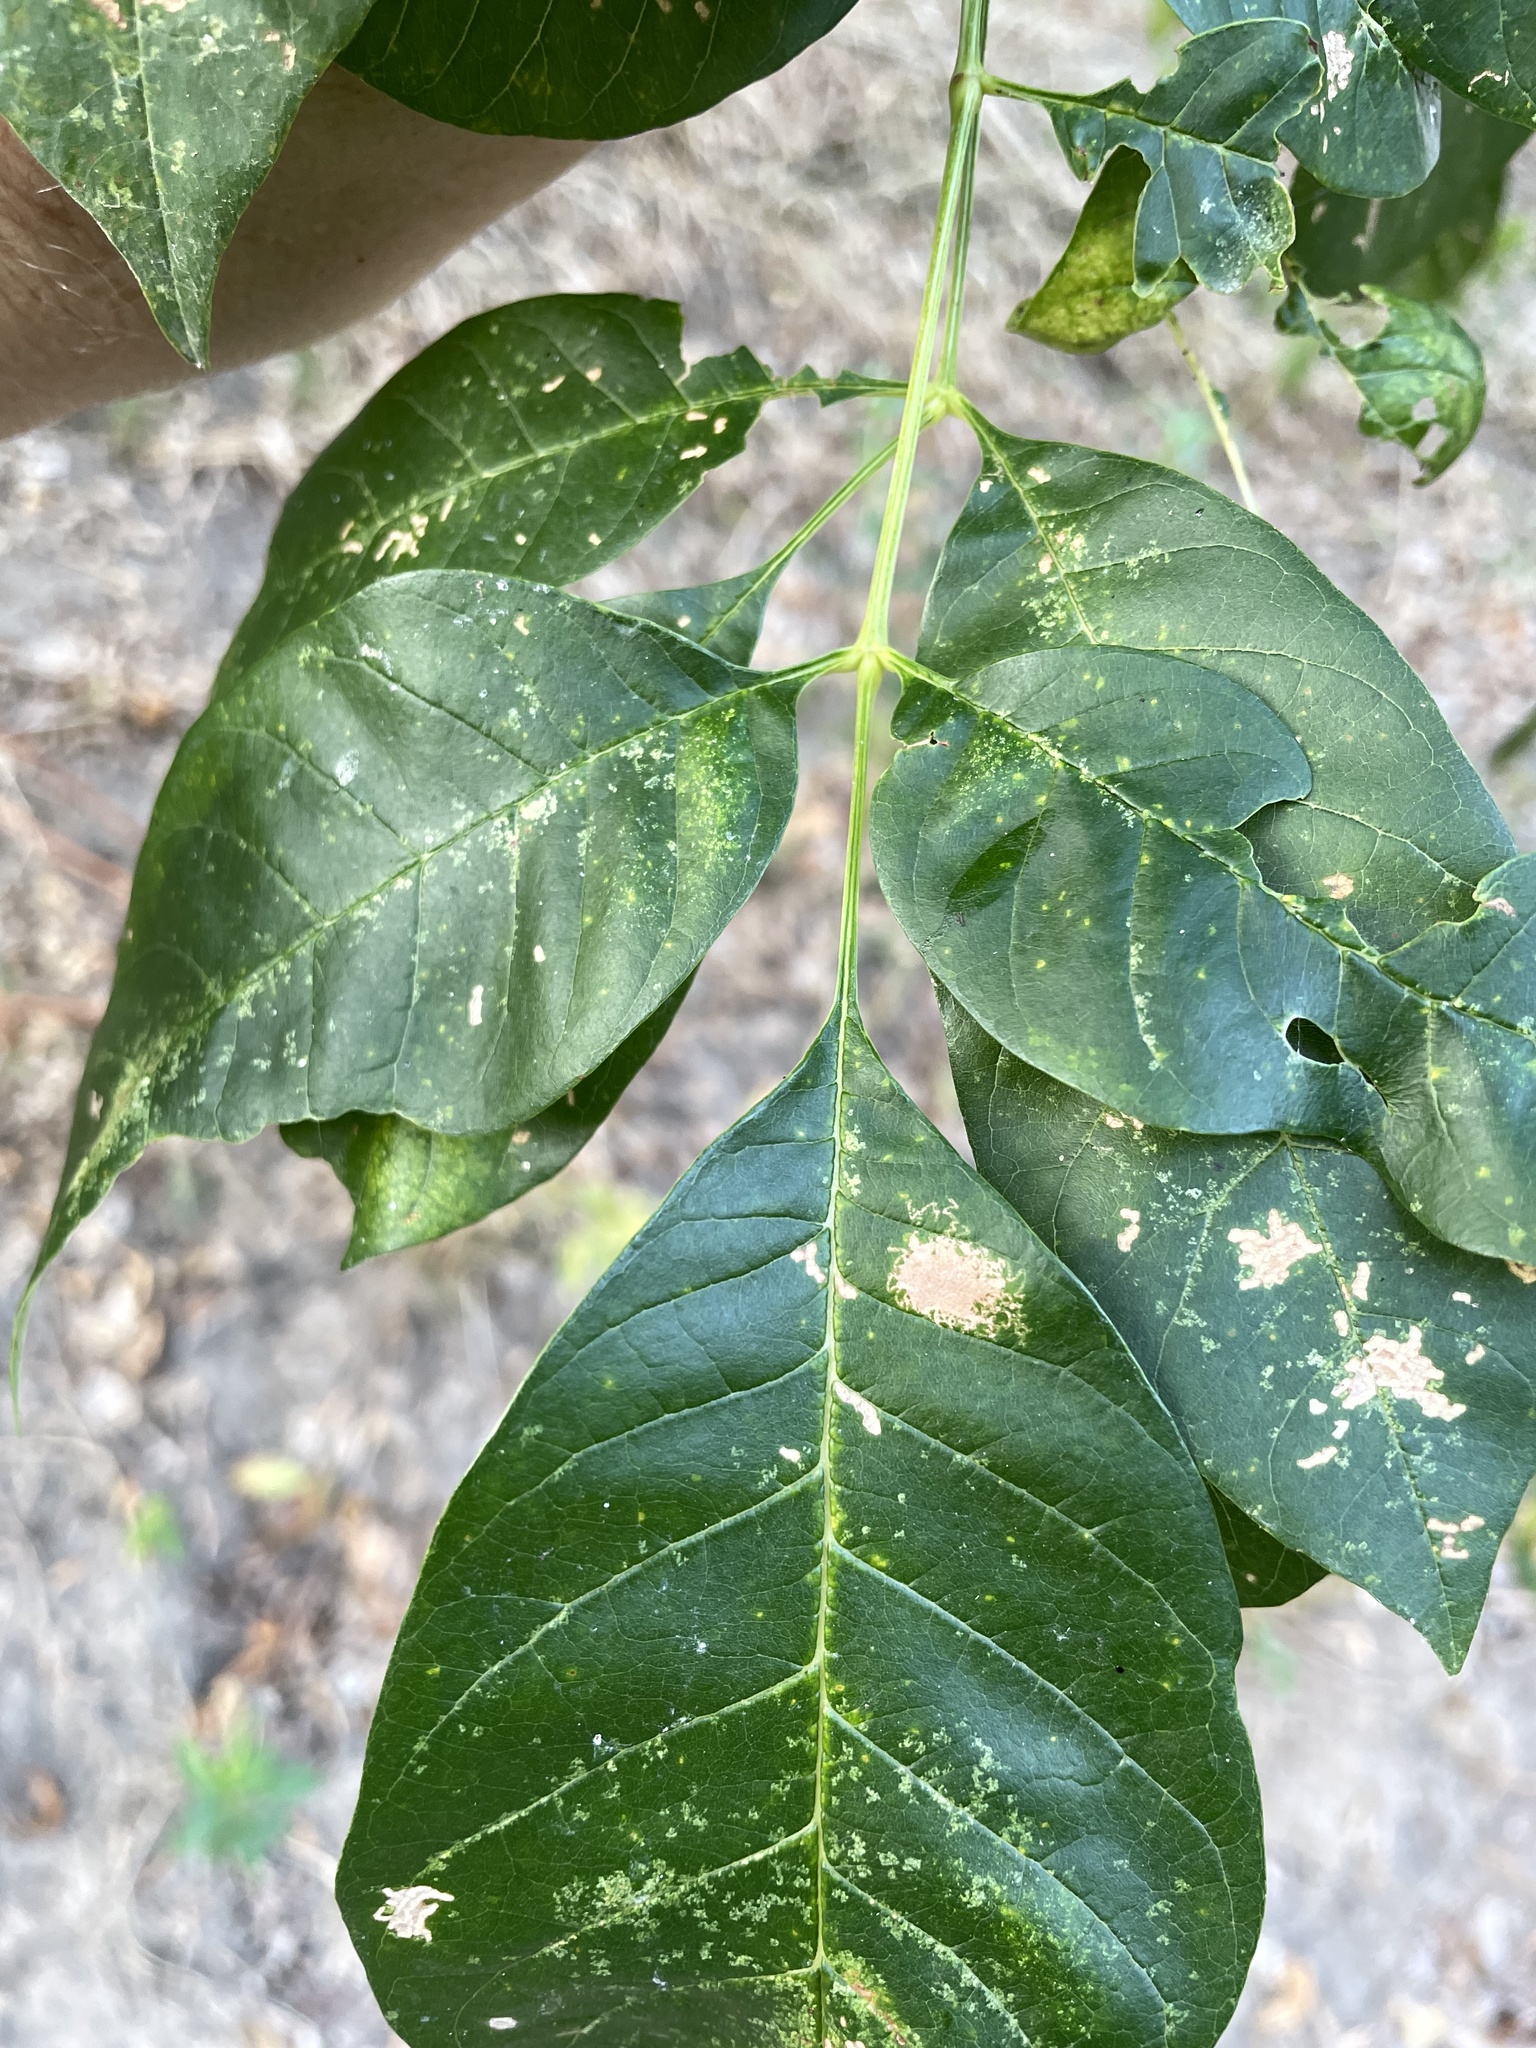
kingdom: Plantae
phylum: Tracheophyta
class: Magnoliopsida
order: Lamiales
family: Oleaceae
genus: Fraxinus
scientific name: Fraxinus pennsylvanica
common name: Green ash
